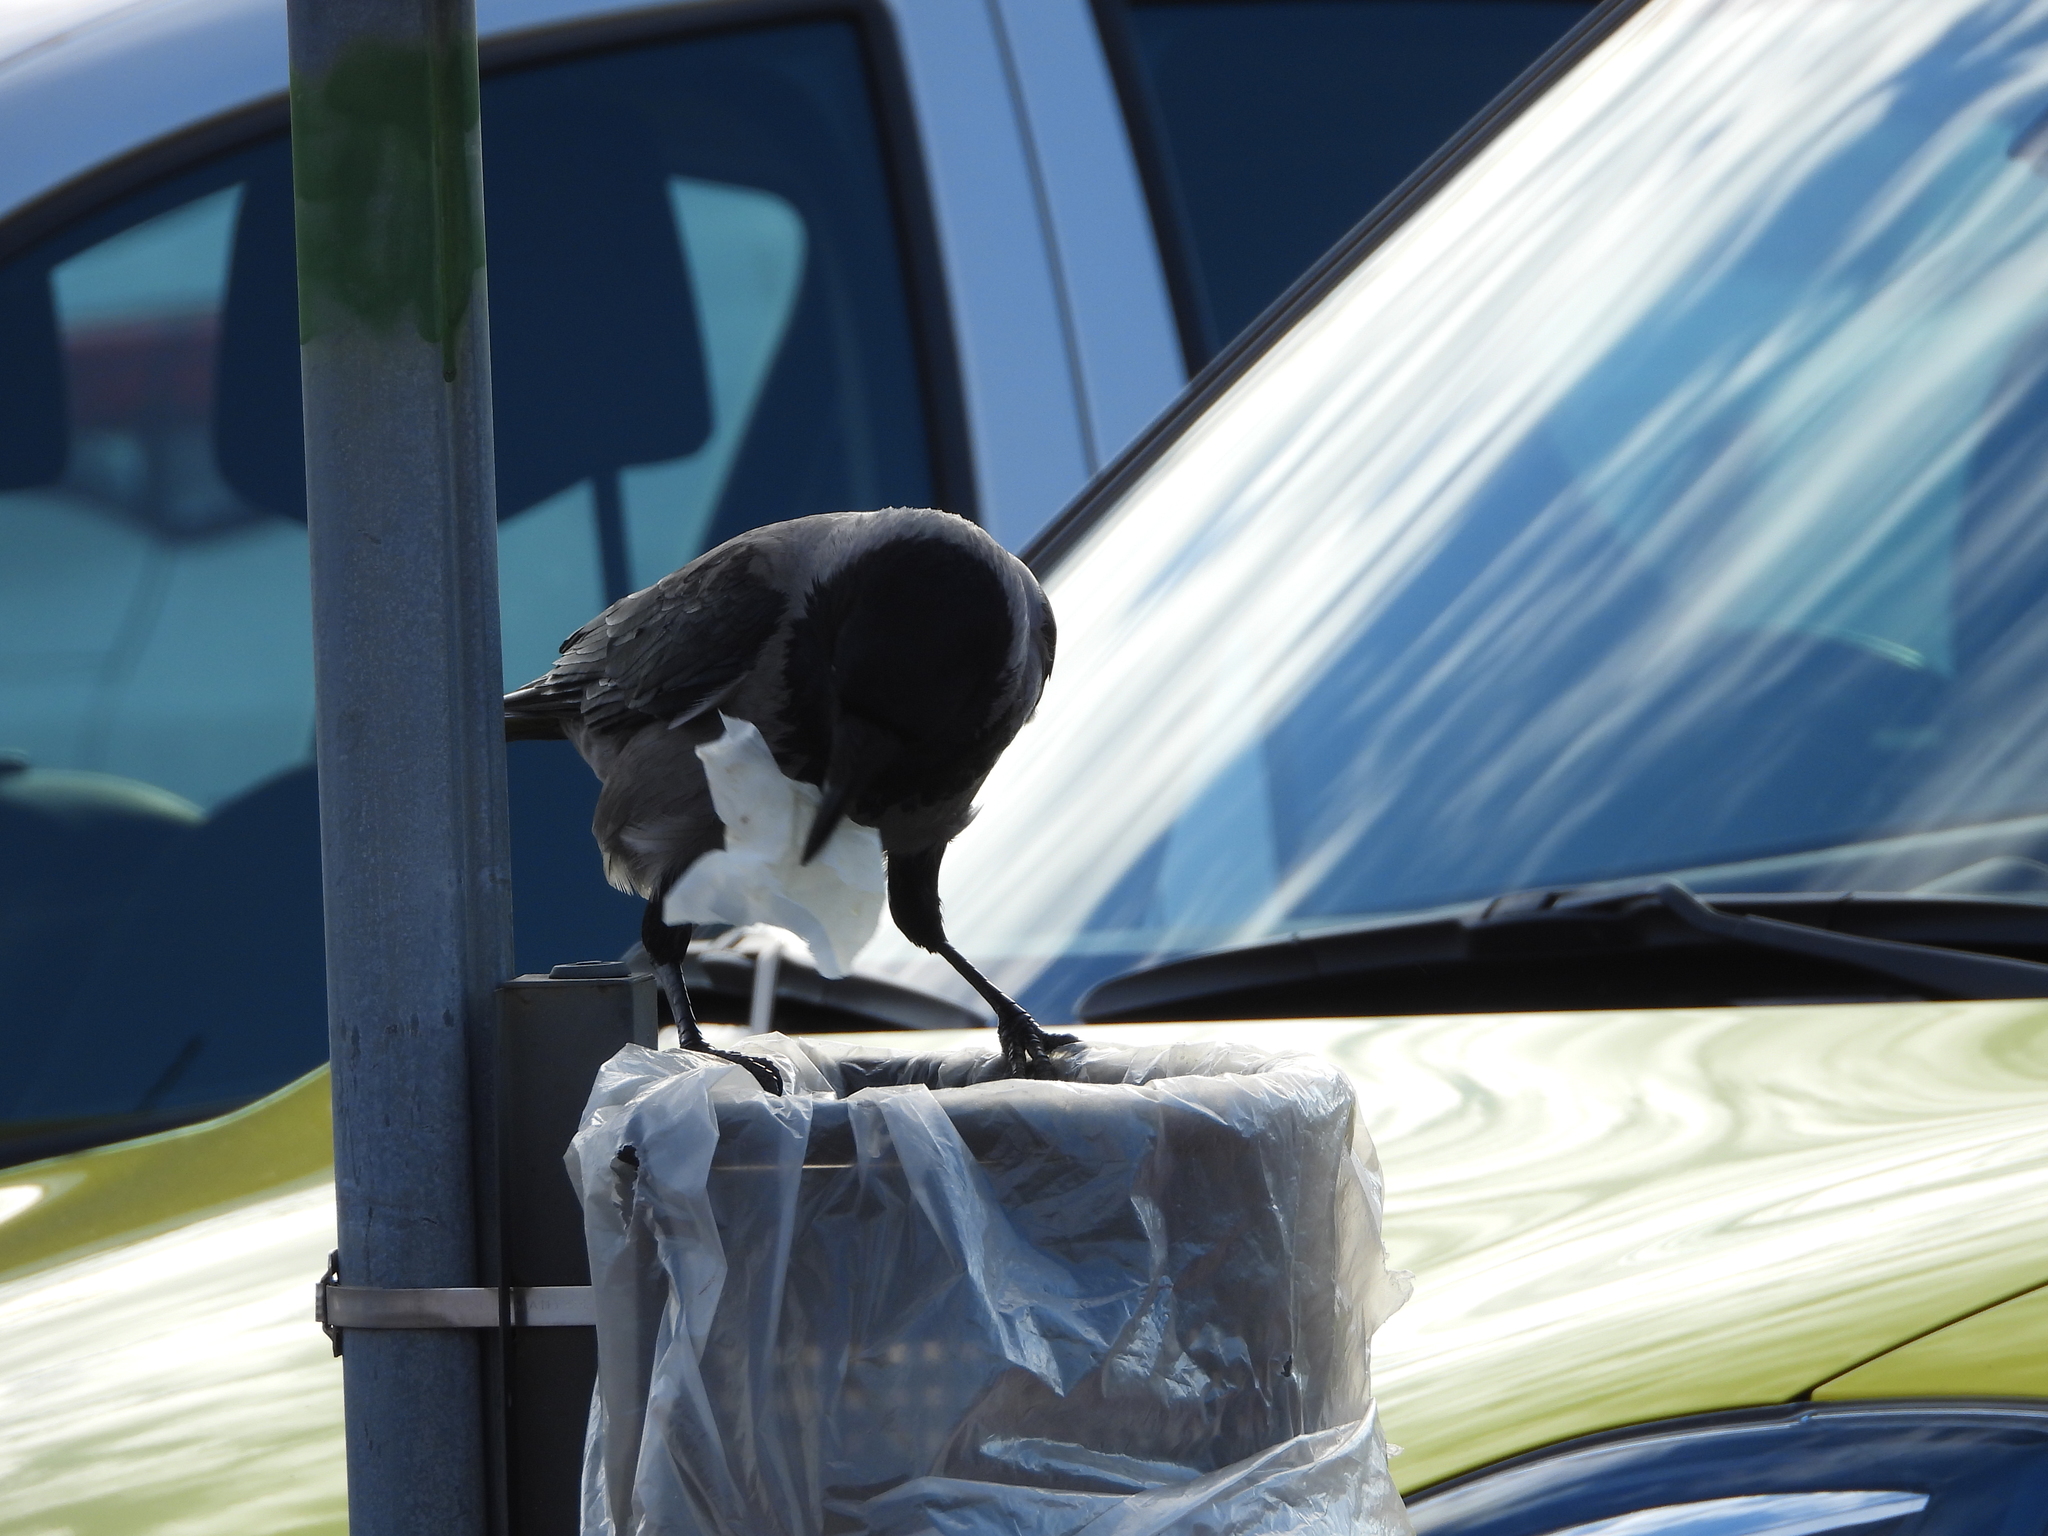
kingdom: Animalia
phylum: Chordata
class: Aves
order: Passeriformes
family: Corvidae
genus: Corvus
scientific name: Corvus cornix
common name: Hooded crow
